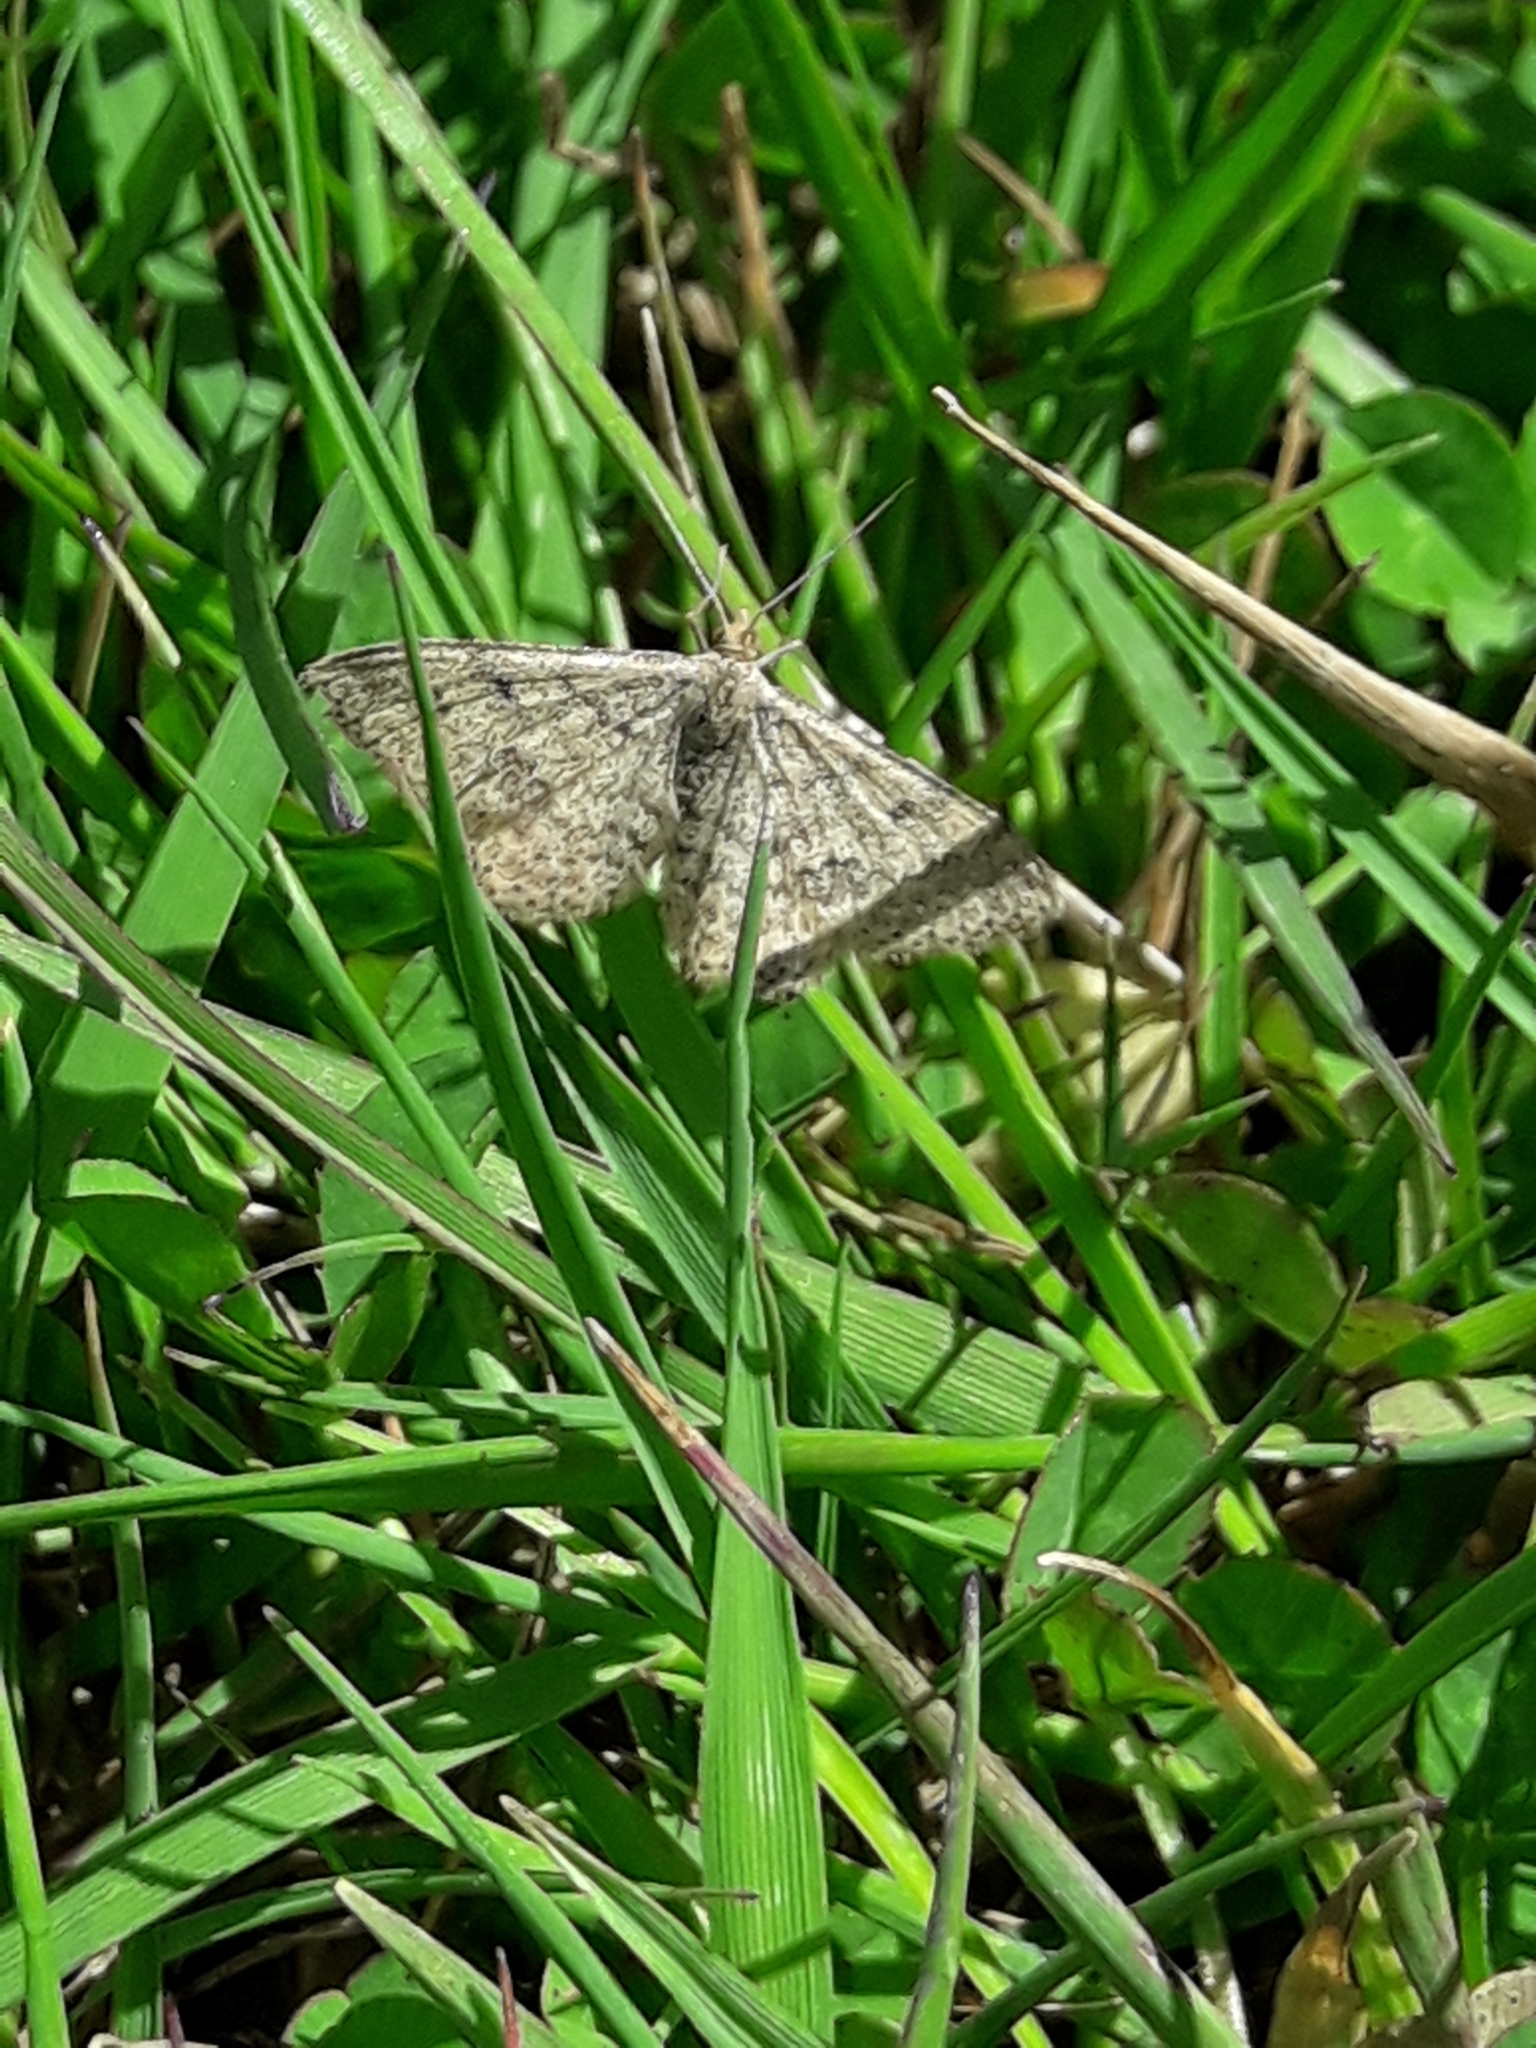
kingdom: Animalia
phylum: Arthropoda
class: Insecta
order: Lepidoptera
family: Geometridae
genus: Scopula
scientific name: Scopula rubraria
